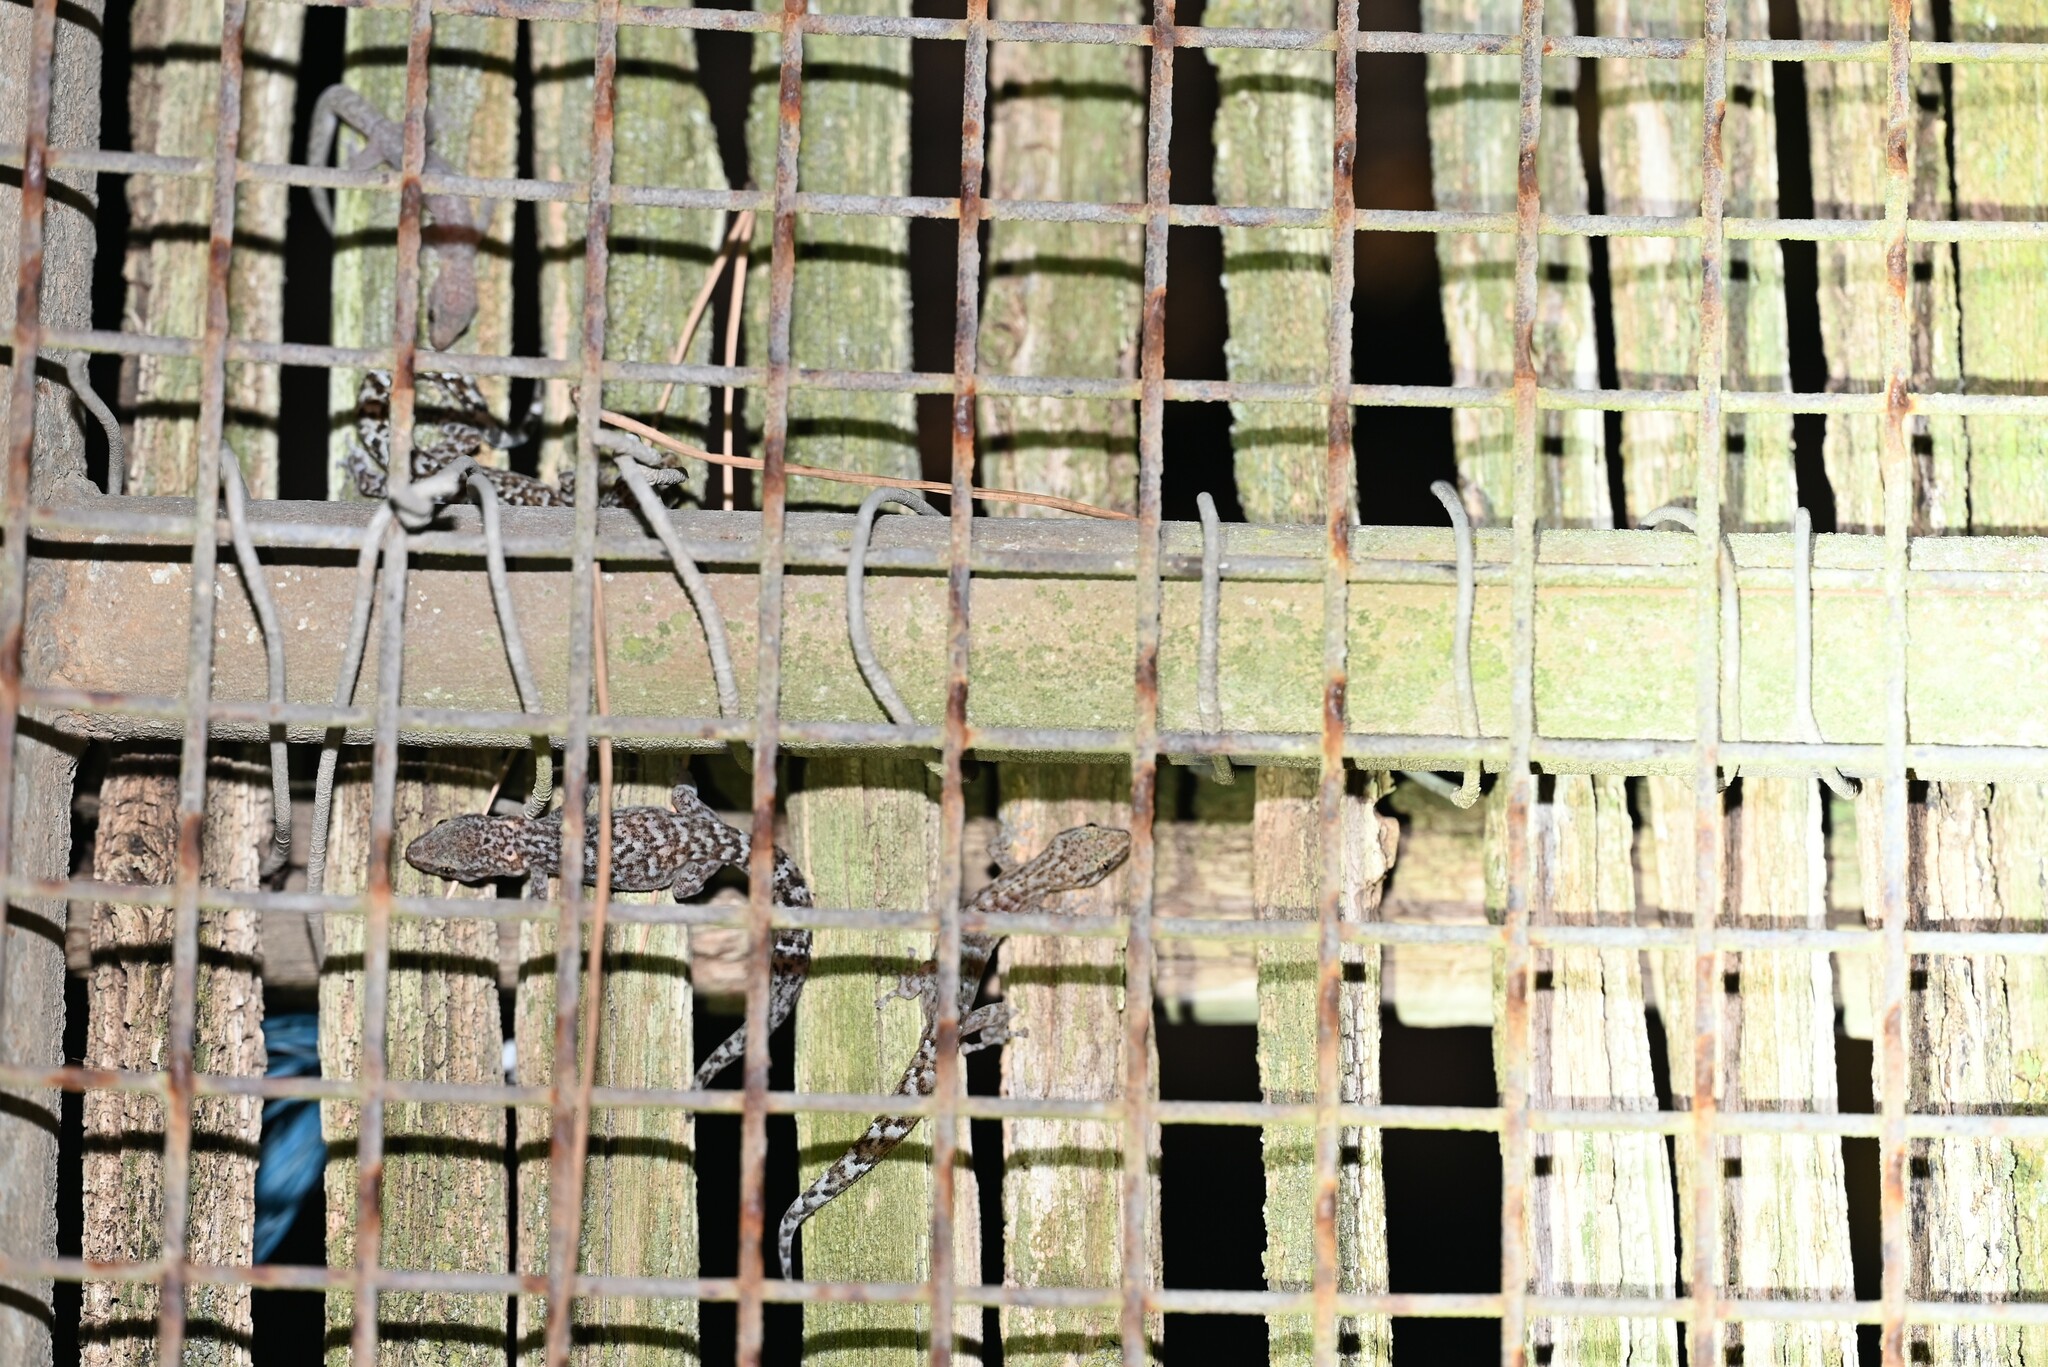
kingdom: Animalia
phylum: Chordata
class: Squamata
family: Gekkonidae
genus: Afrogecko
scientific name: Afrogecko porphyreus
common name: Marbled leaf-toed gecko
